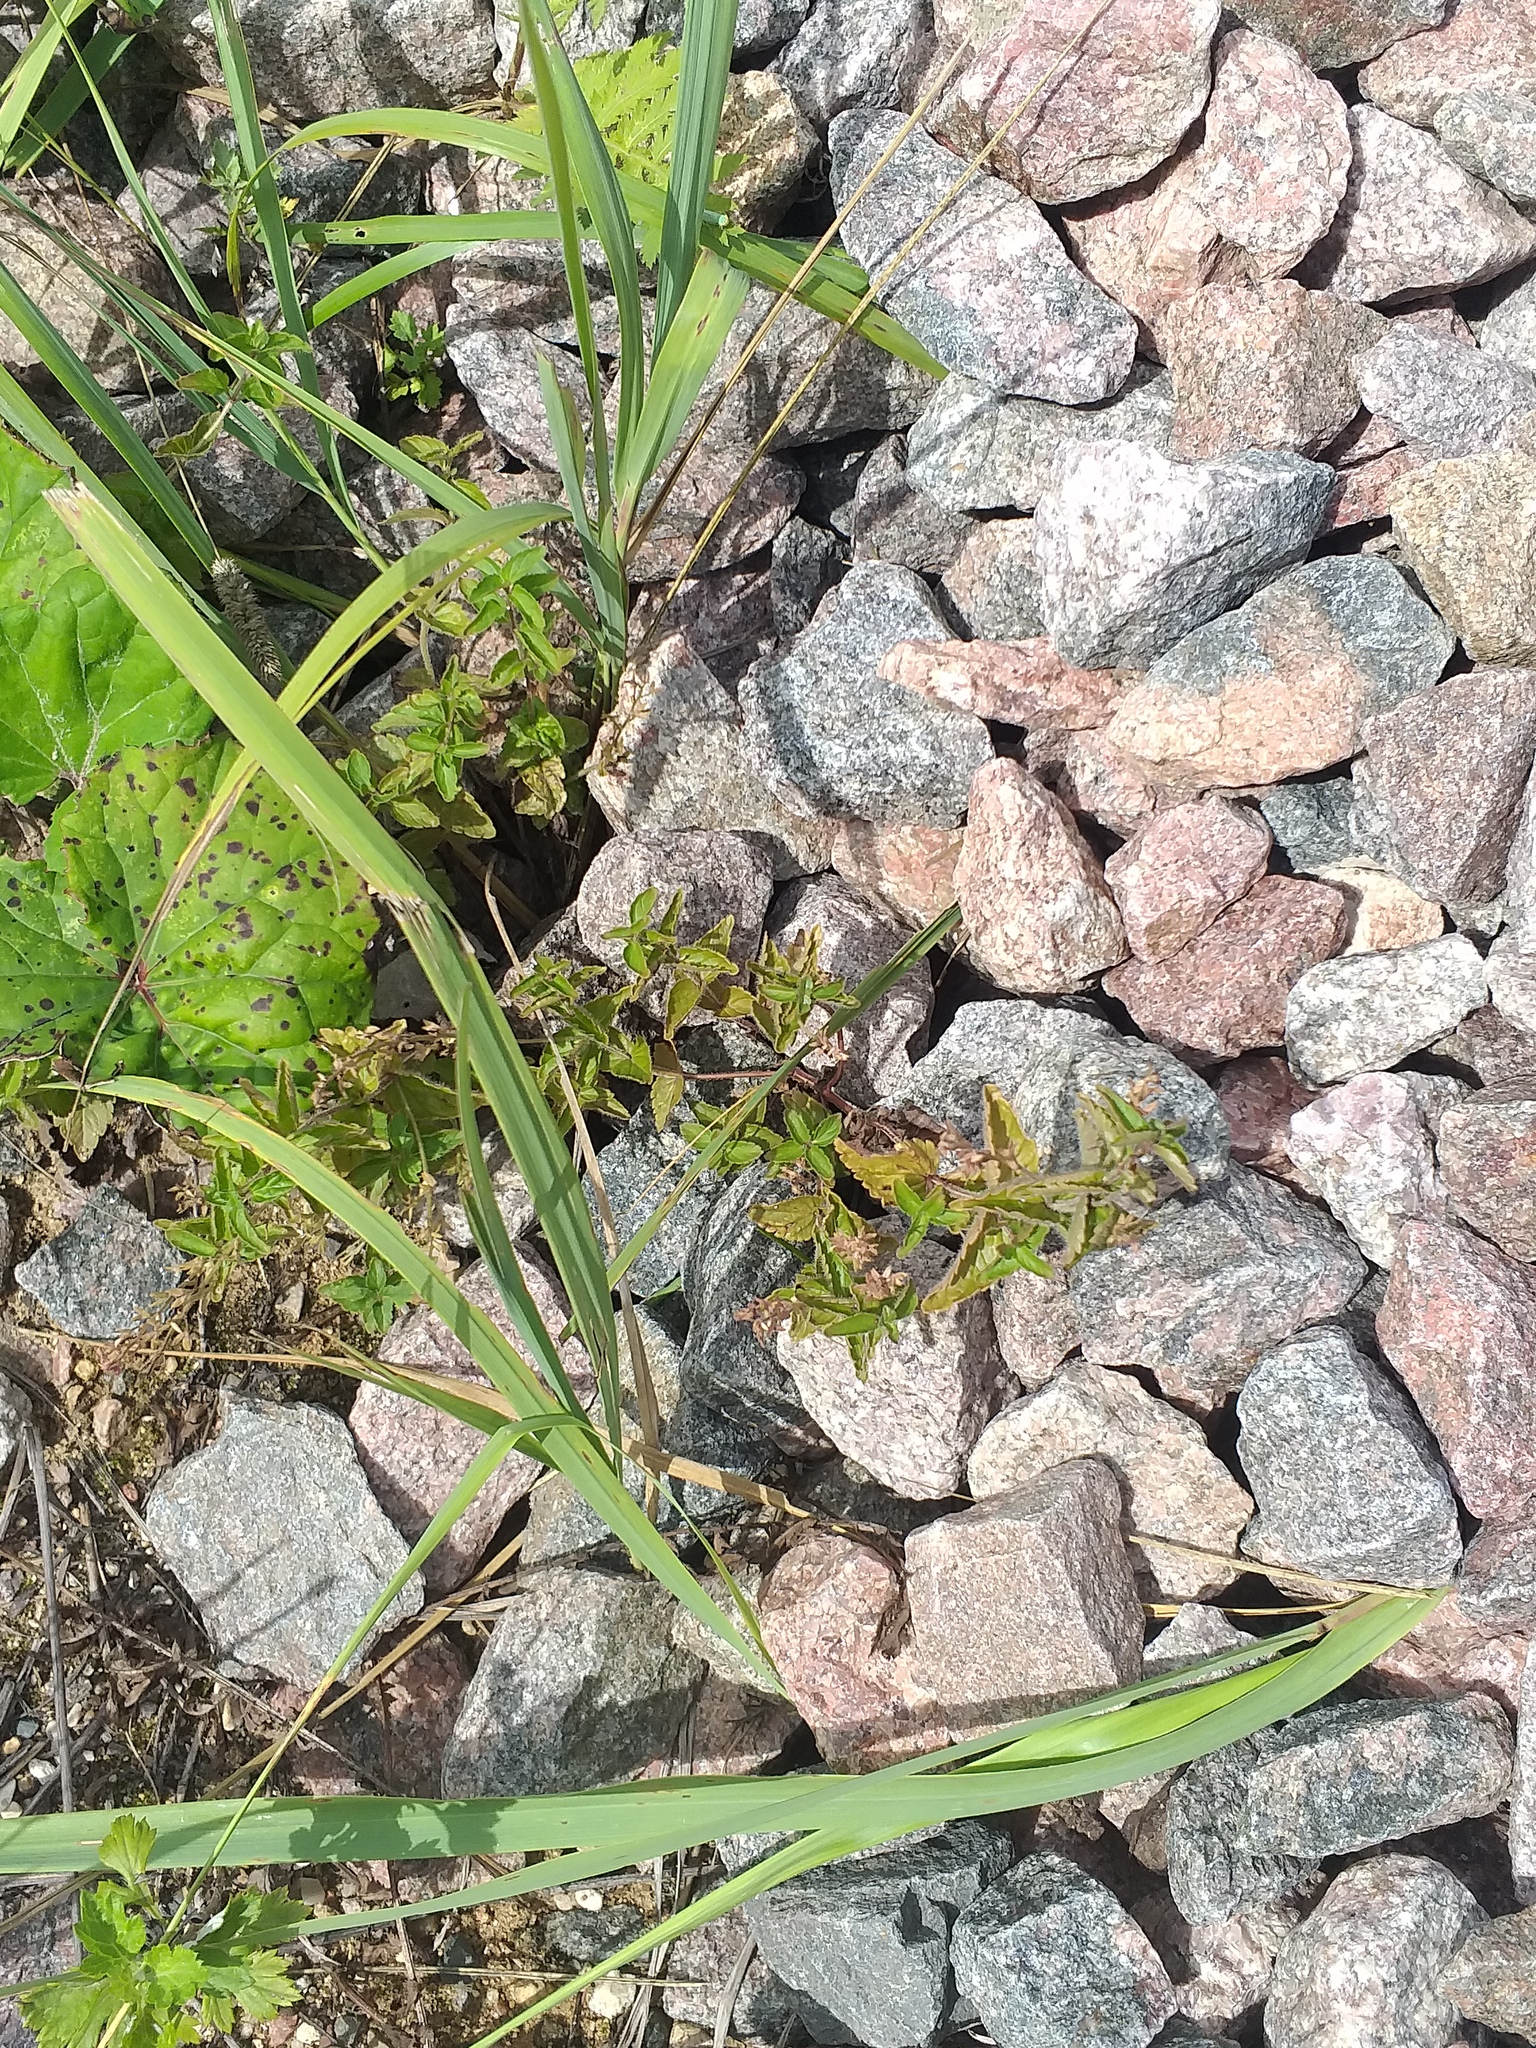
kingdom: Plantae
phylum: Tracheophyta
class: Magnoliopsida
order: Lamiales
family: Plantaginaceae
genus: Veronica
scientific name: Veronica chamaedrys
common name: Germander speedwell
